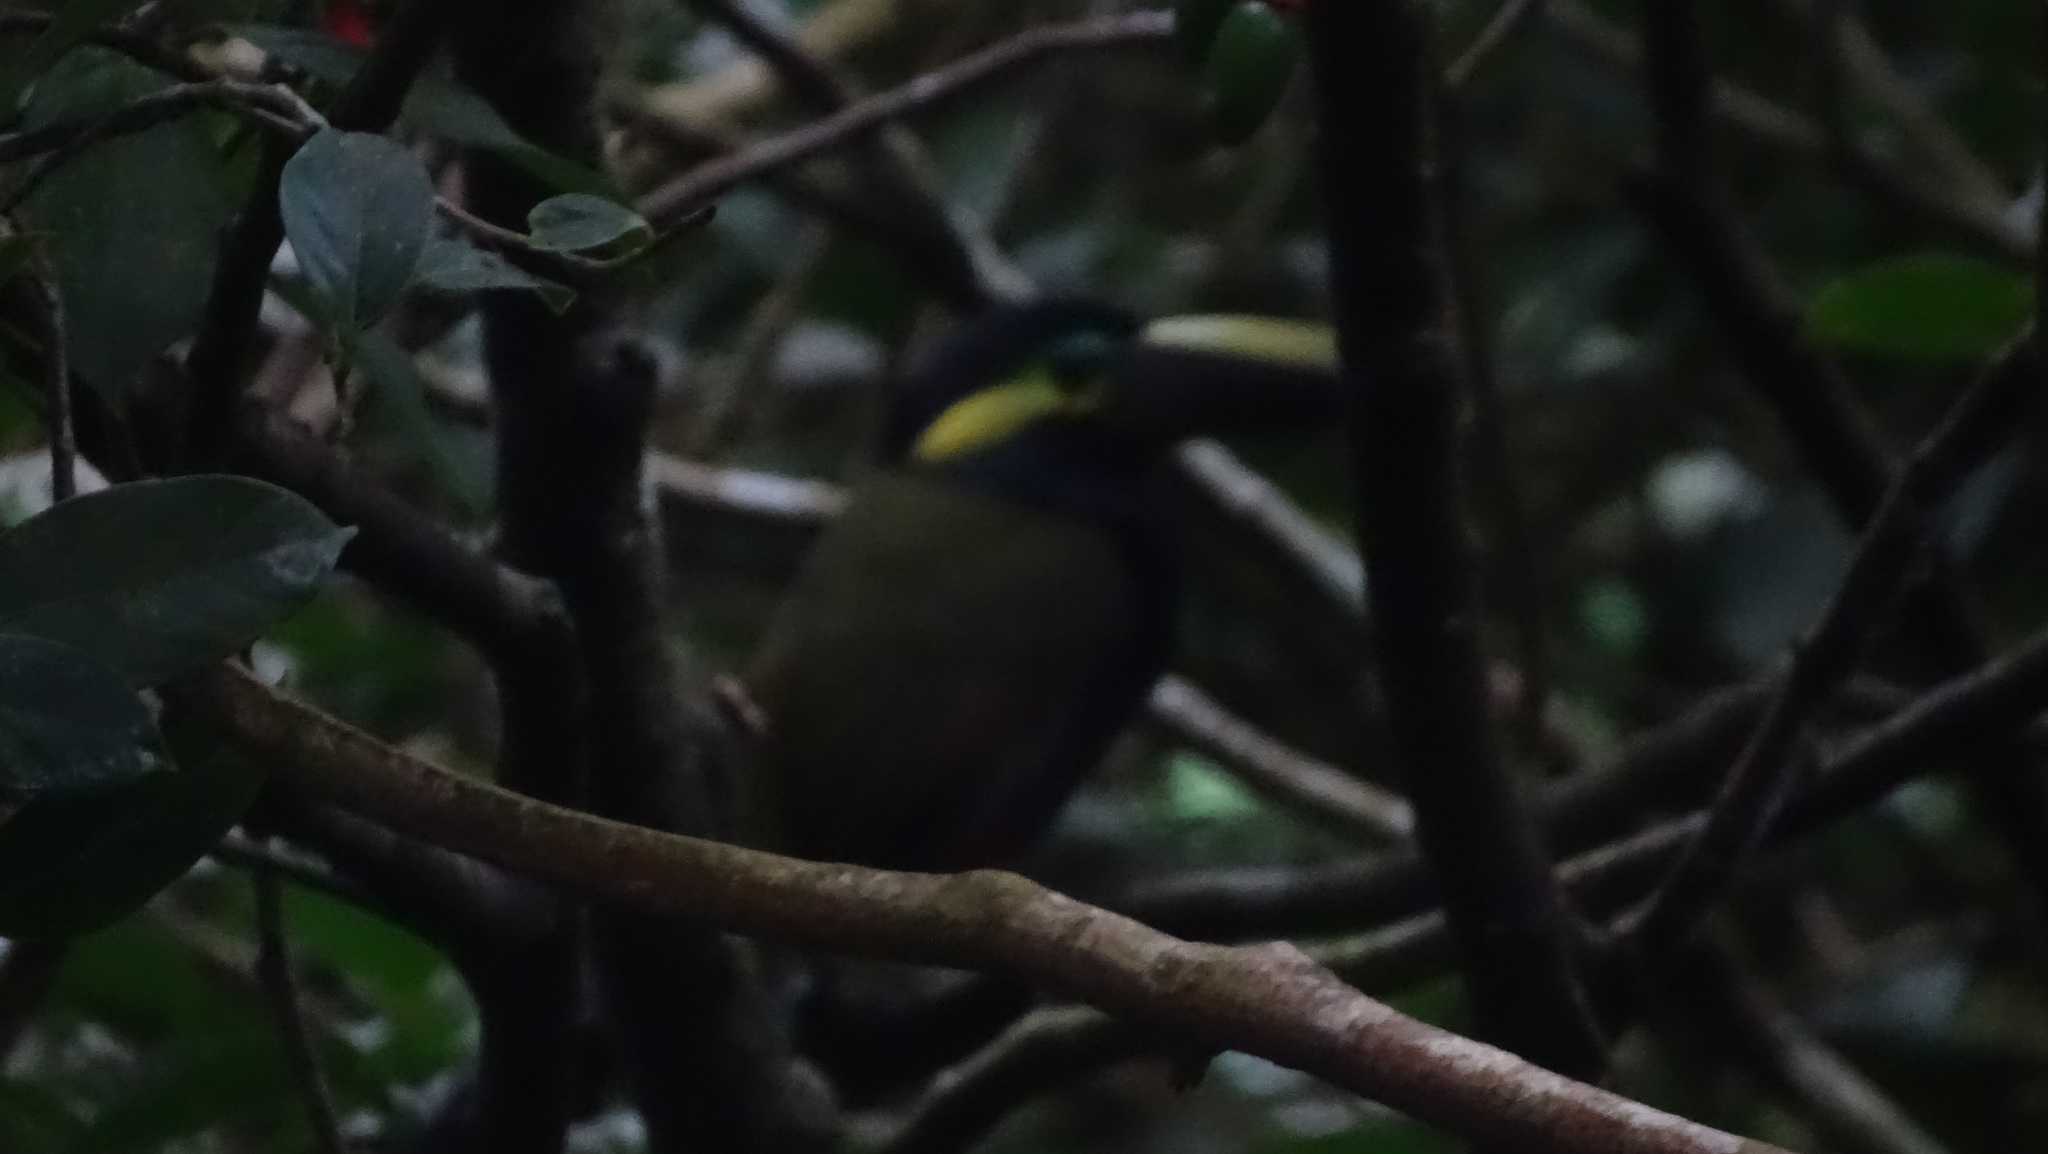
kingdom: Animalia
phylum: Chordata
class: Aves
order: Piciformes
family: Ramphastidae
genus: Selenidera
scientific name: Selenidera spectabilis
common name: Yellow-eared toucanet
